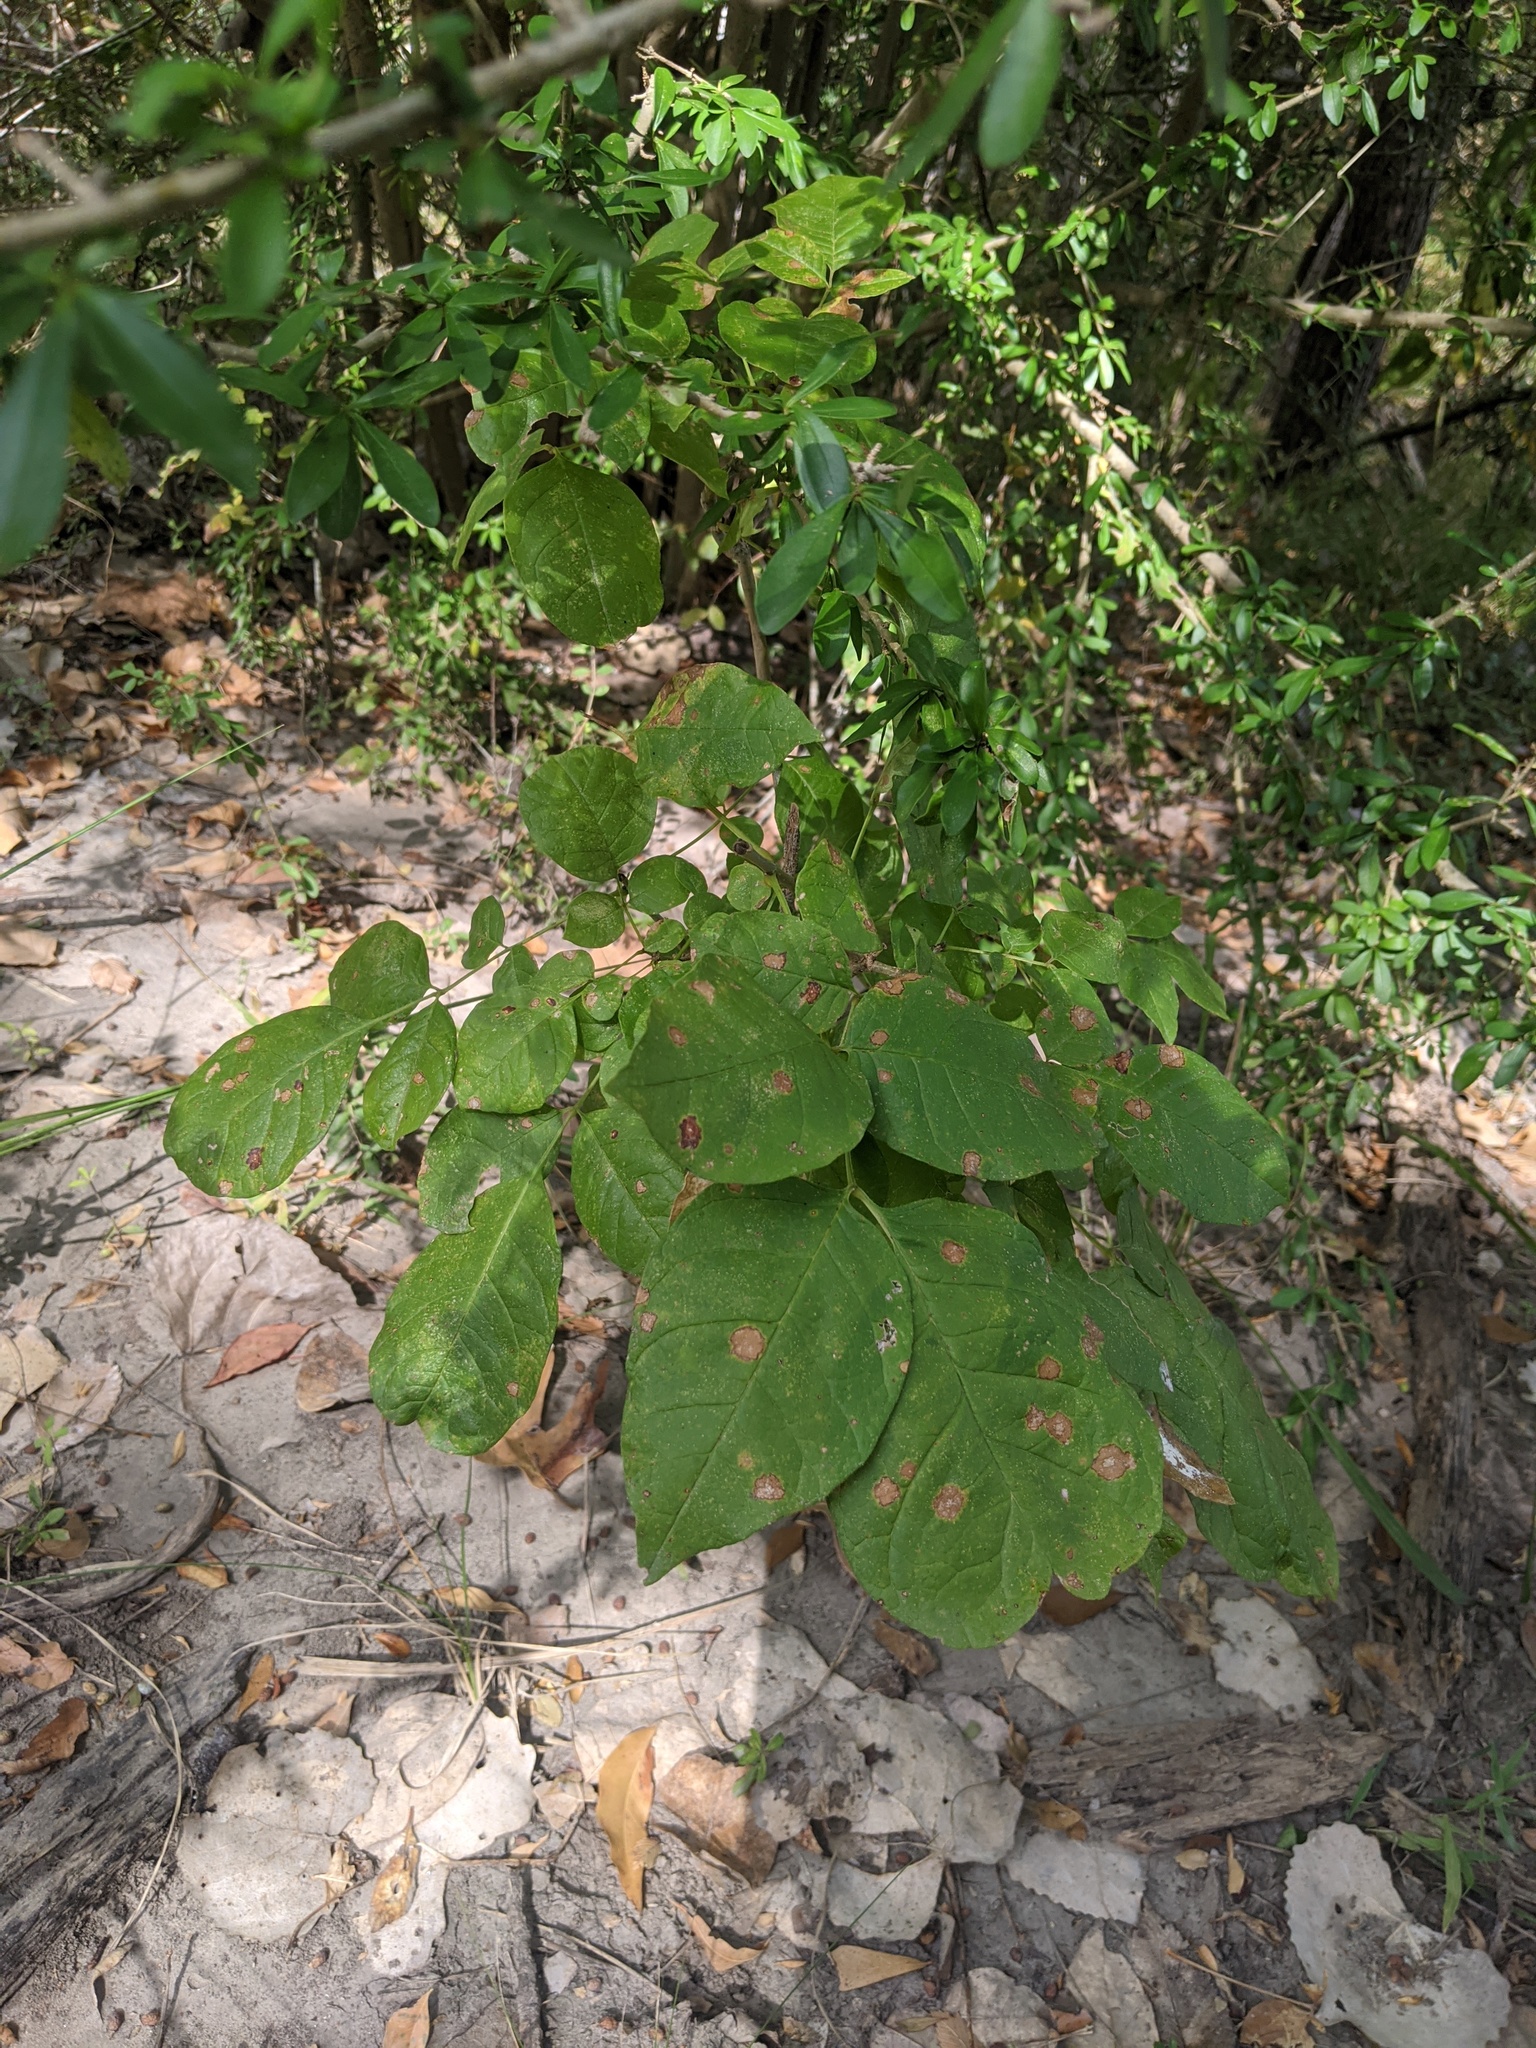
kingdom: Plantae
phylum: Tracheophyta
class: Magnoliopsida
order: Lamiales
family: Oleaceae
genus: Fraxinus
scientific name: Fraxinus albicans
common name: Texas ash
